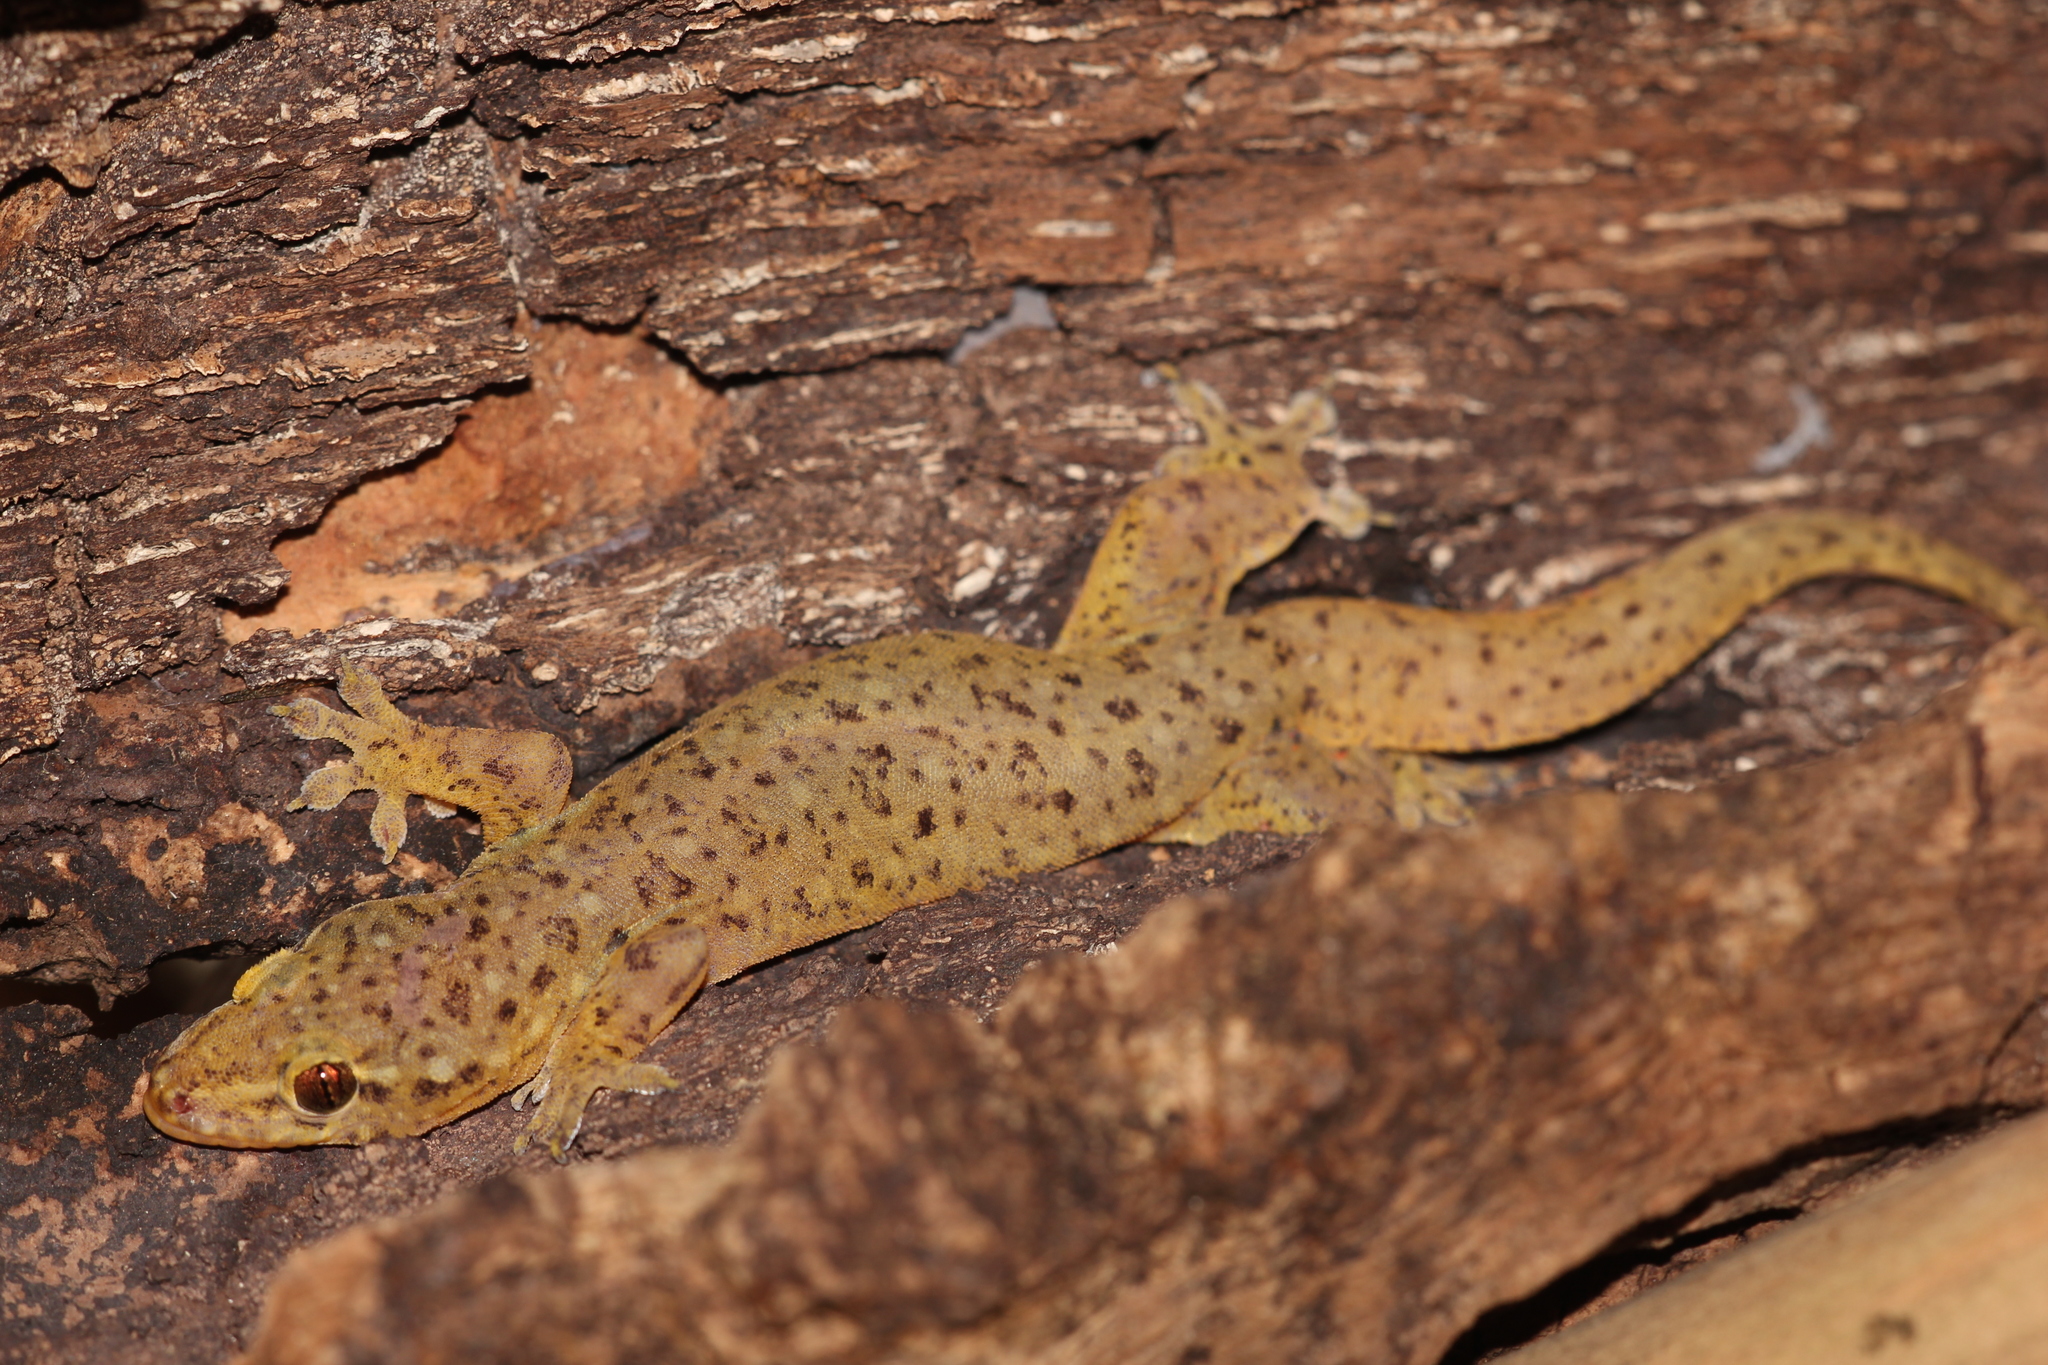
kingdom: Animalia
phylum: Chordata
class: Squamata
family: Gekkonidae
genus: Gehyra
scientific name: Gehyra mutilata
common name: Stump-toed gecko
